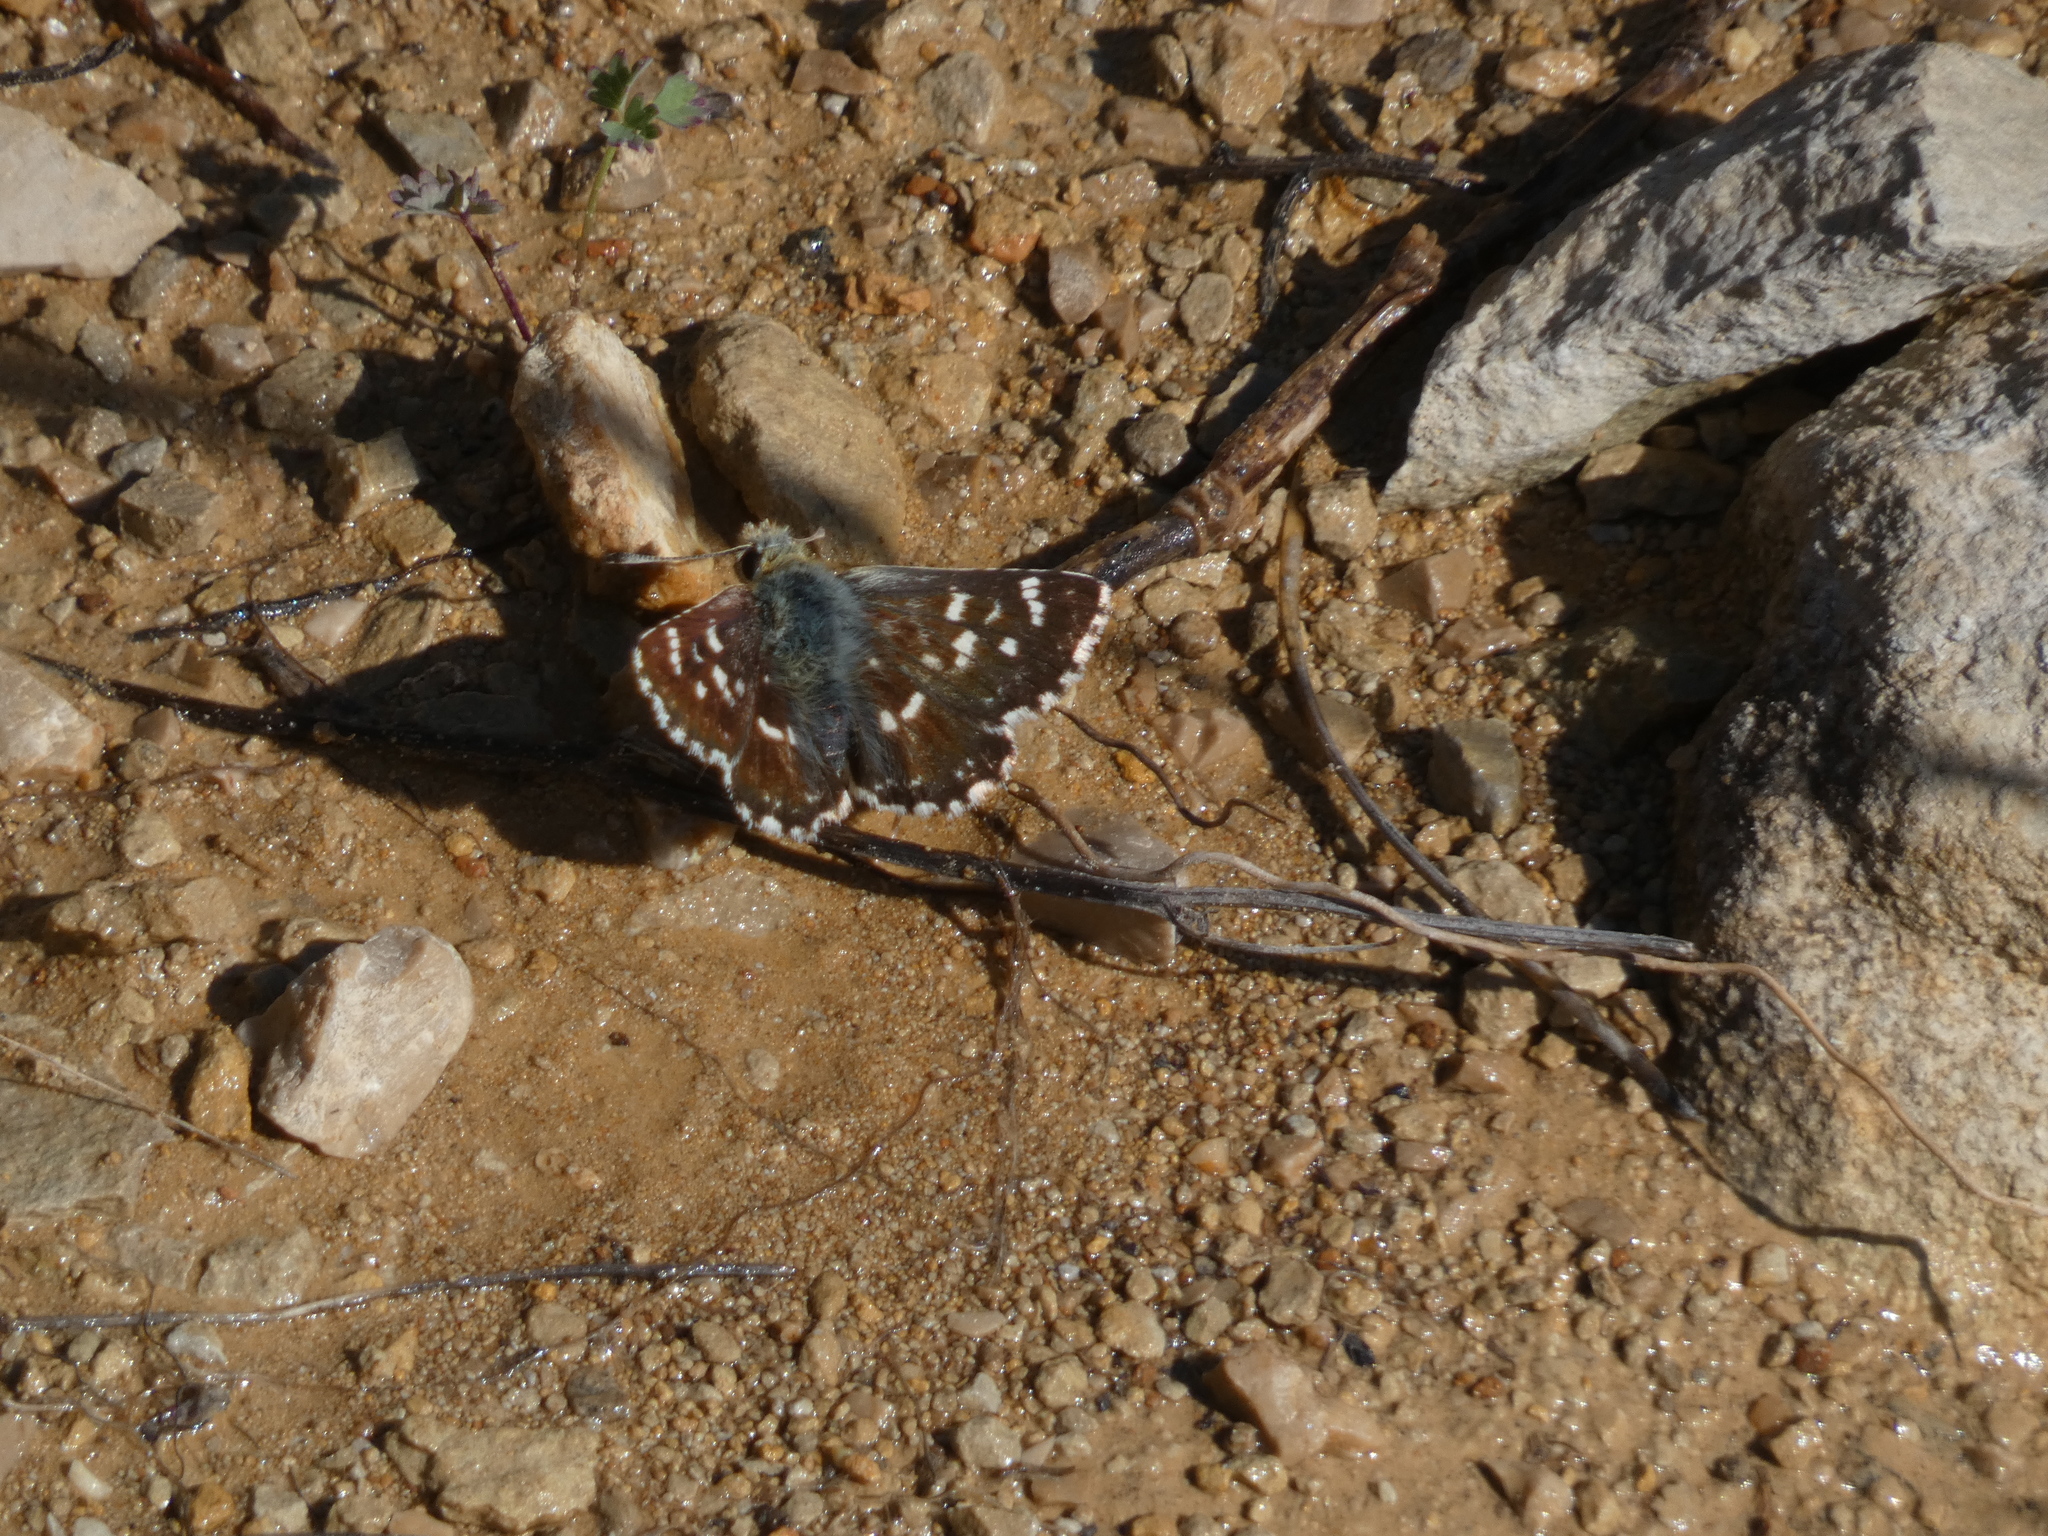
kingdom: Animalia
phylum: Arthropoda
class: Insecta
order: Lepidoptera
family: Hesperiidae
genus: Spialia
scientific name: Spialia sertorius
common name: Red underwing skipper
